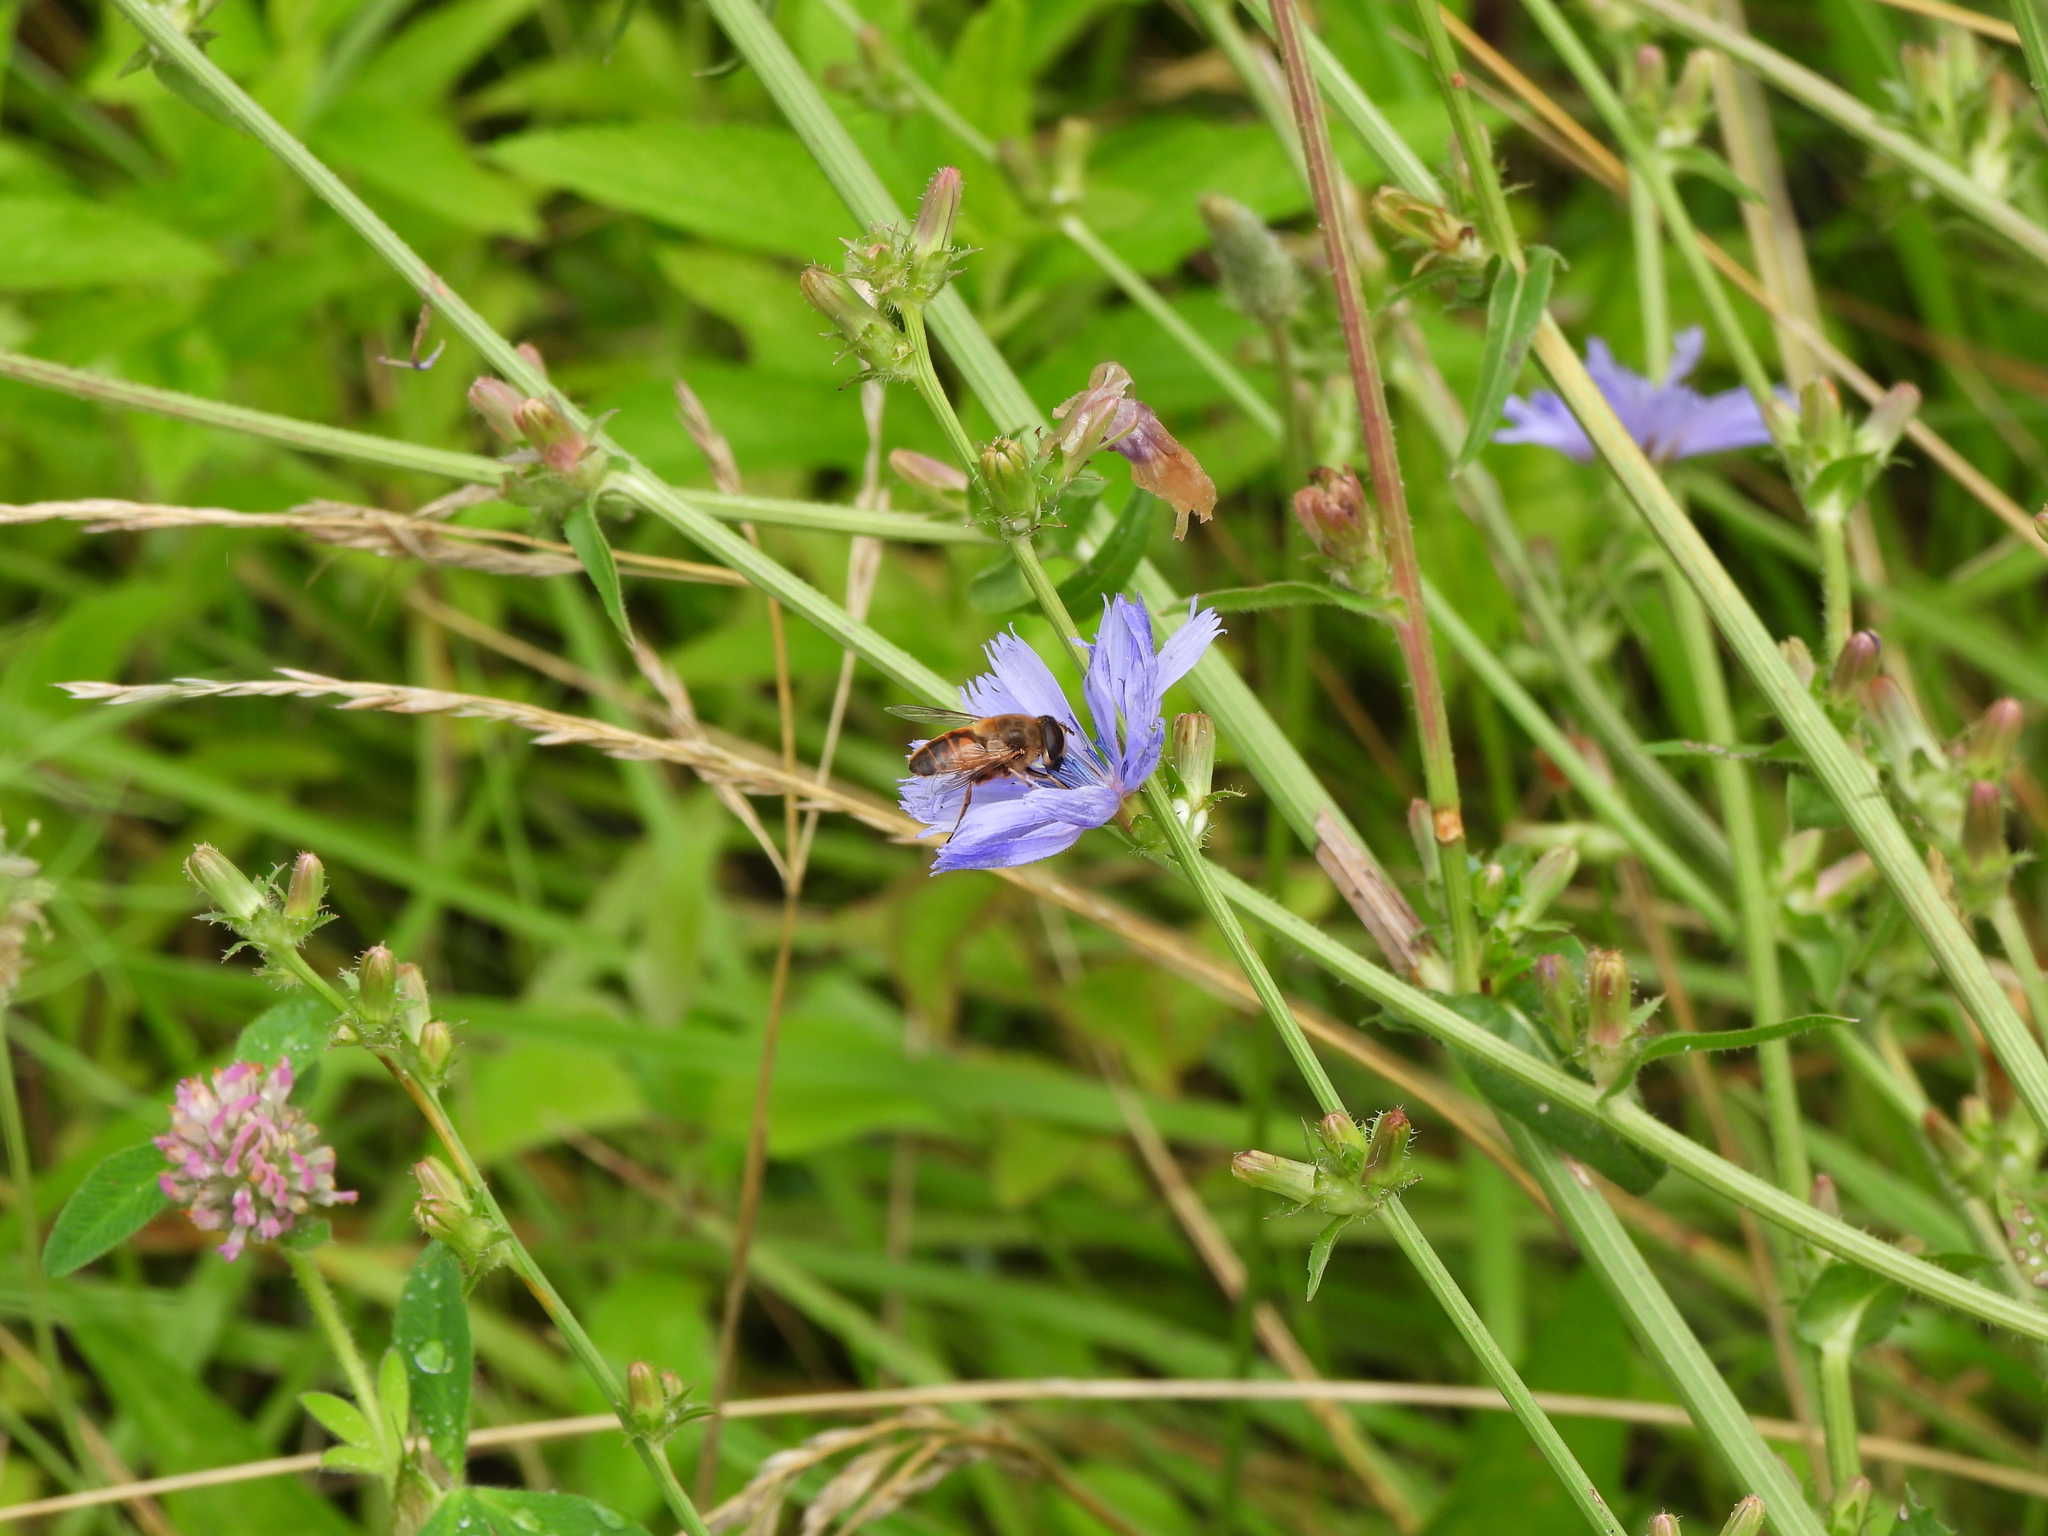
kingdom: Animalia
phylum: Arthropoda
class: Insecta
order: Diptera
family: Syrphidae
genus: Eristalis
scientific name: Eristalis tenax
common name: Drone fly
